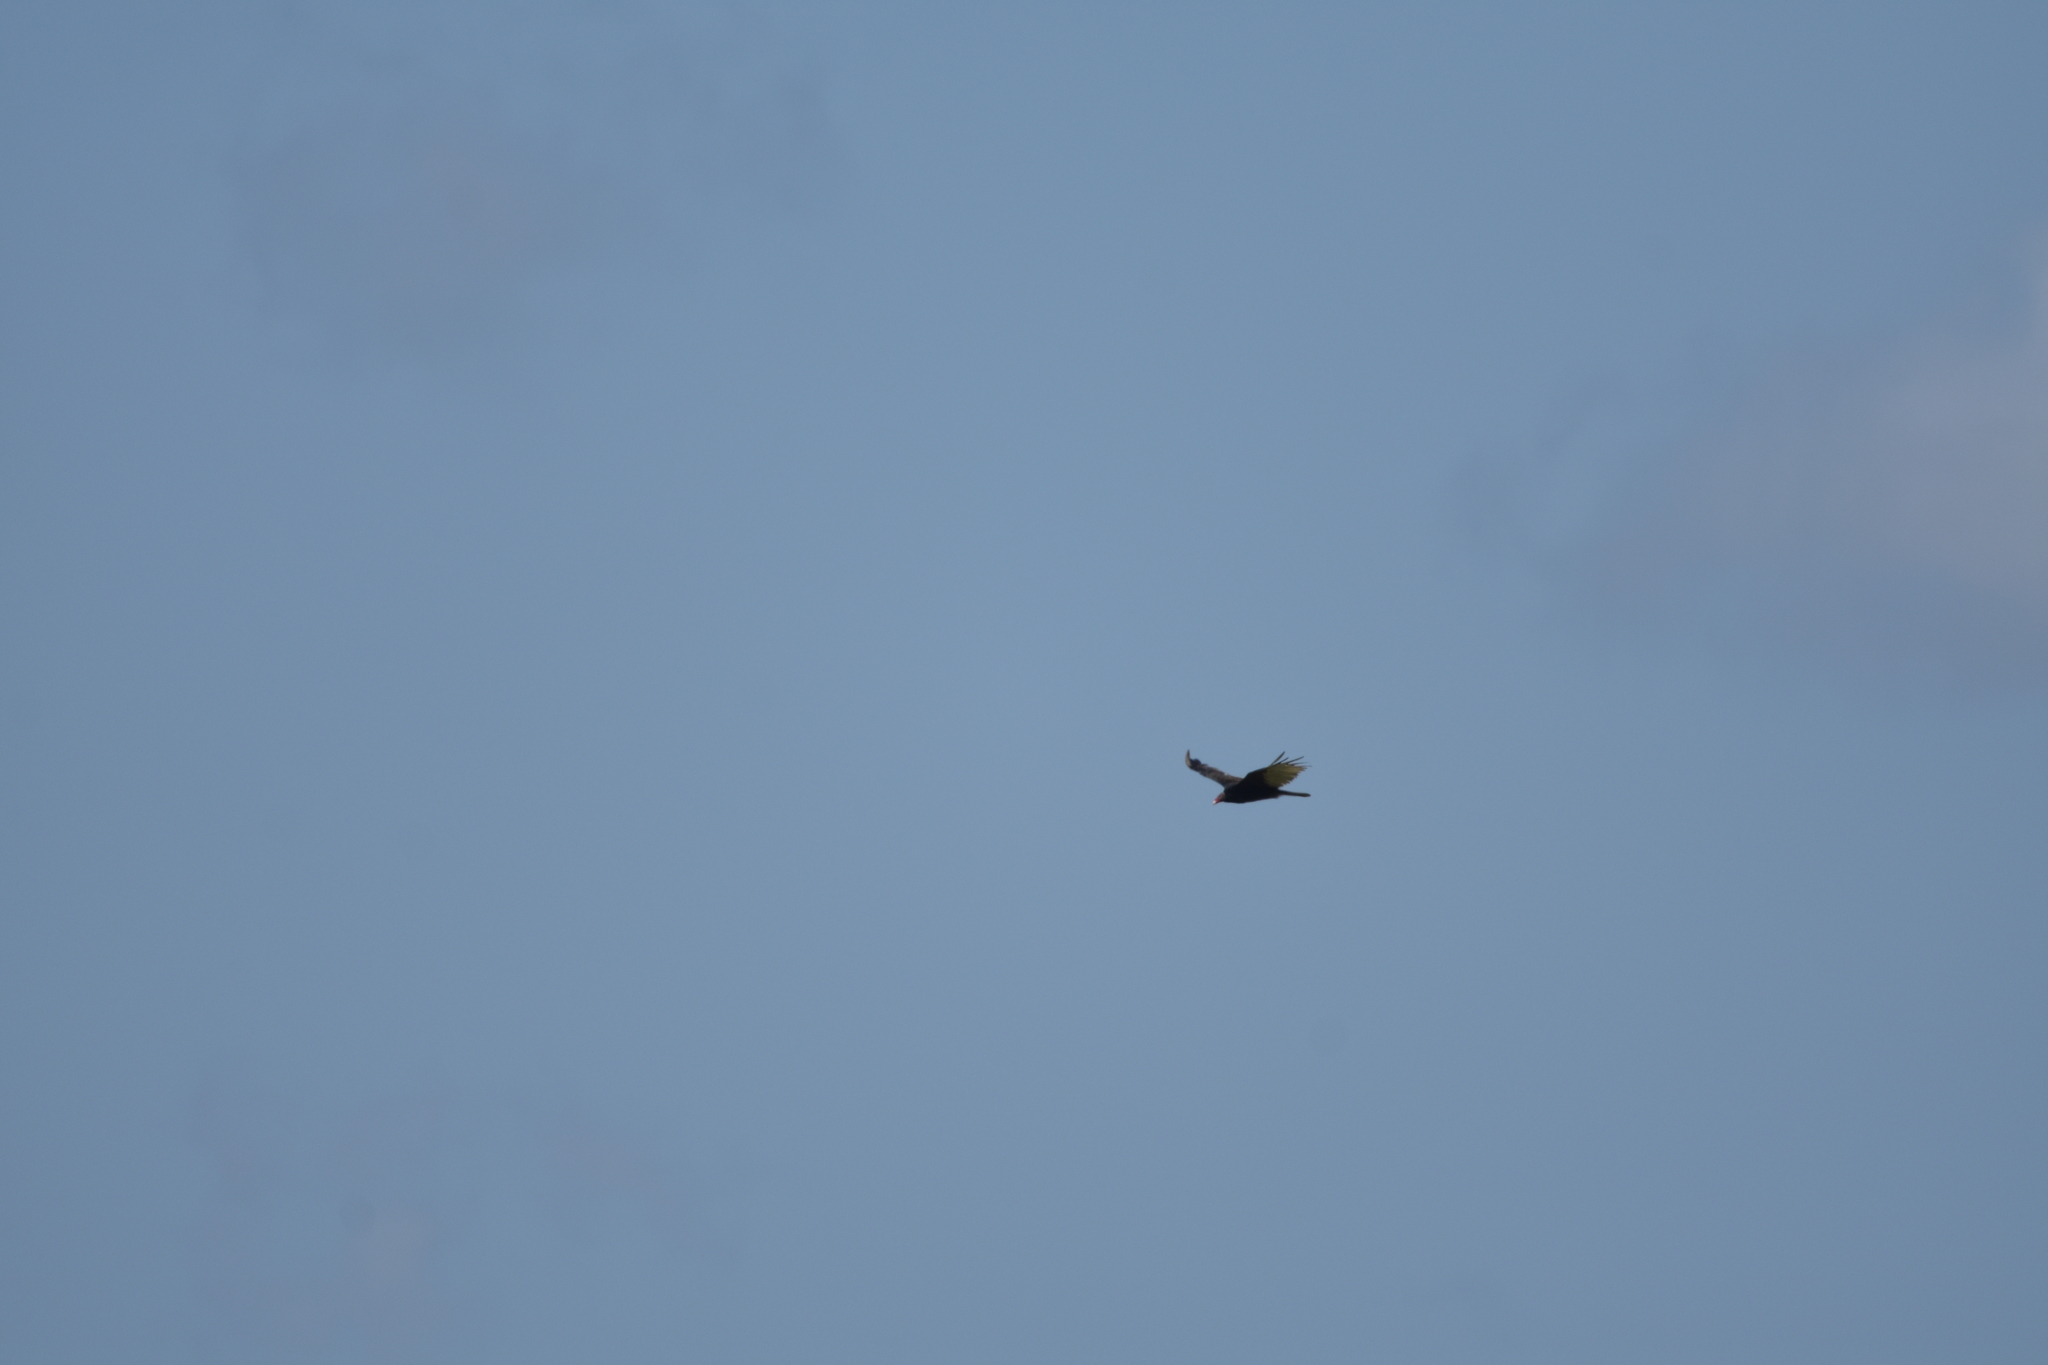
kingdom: Animalia
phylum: Chordata
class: Aves
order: Accipitriformes
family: Cathartidae
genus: Cathartes
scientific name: Cathartes aura
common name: Turkey vulture
